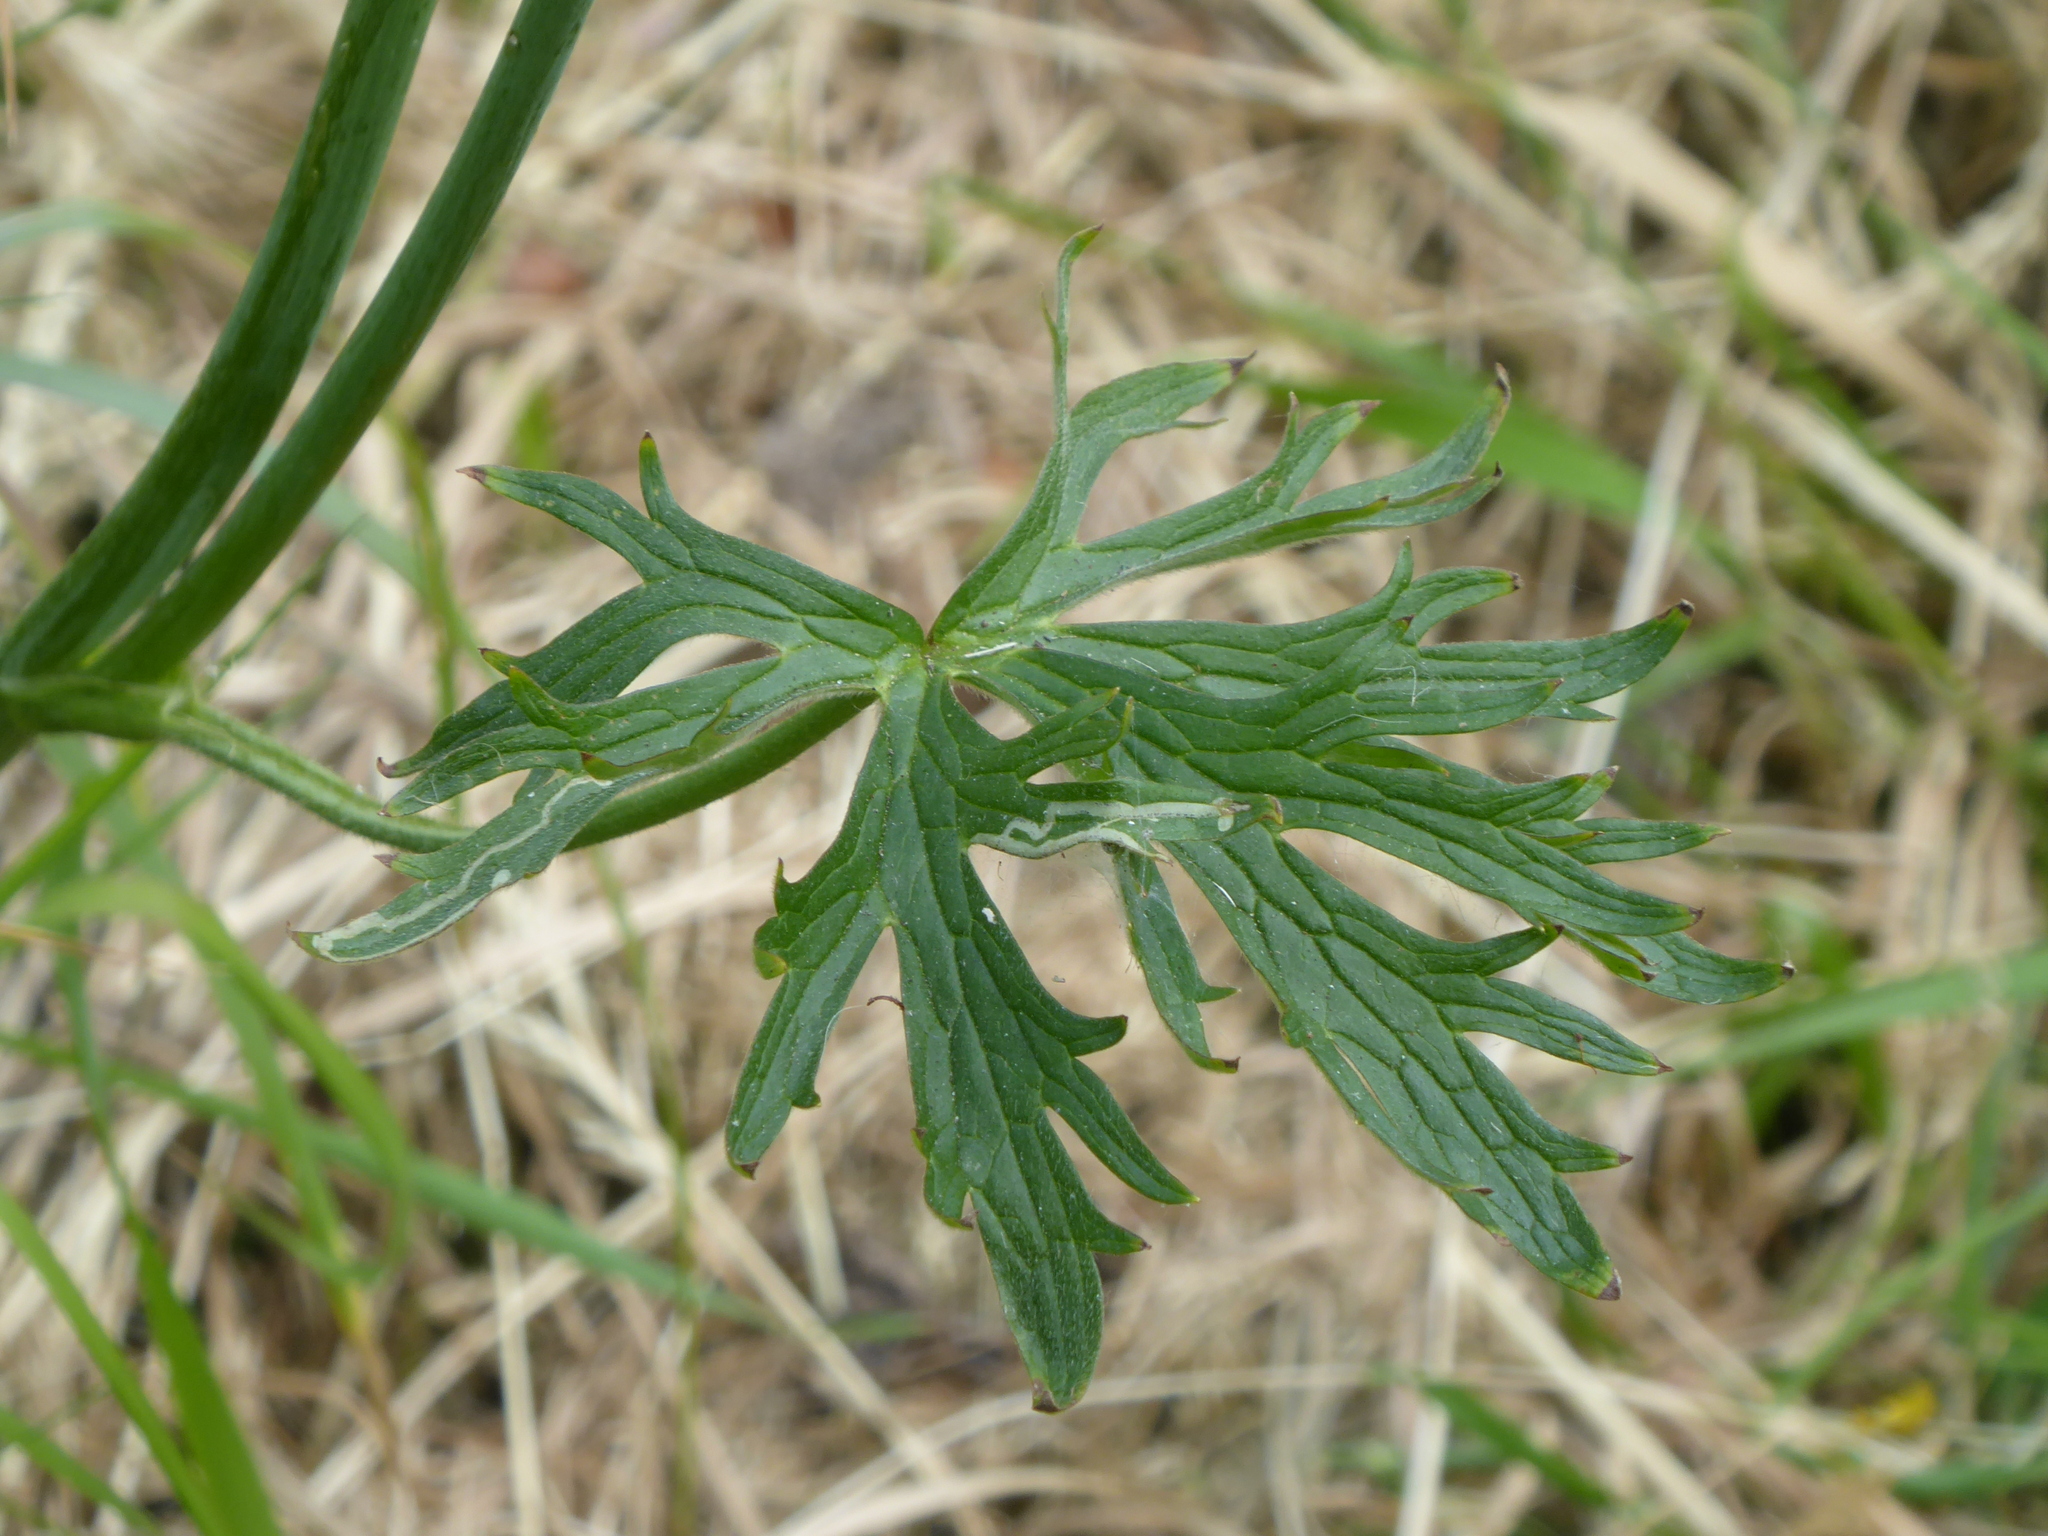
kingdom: Animalia
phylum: Arthropoda
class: Insecta
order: Diptera
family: Agromyzidae
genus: Phytomyza
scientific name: Phytomyza ranunculi
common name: Leaf-miner fly
